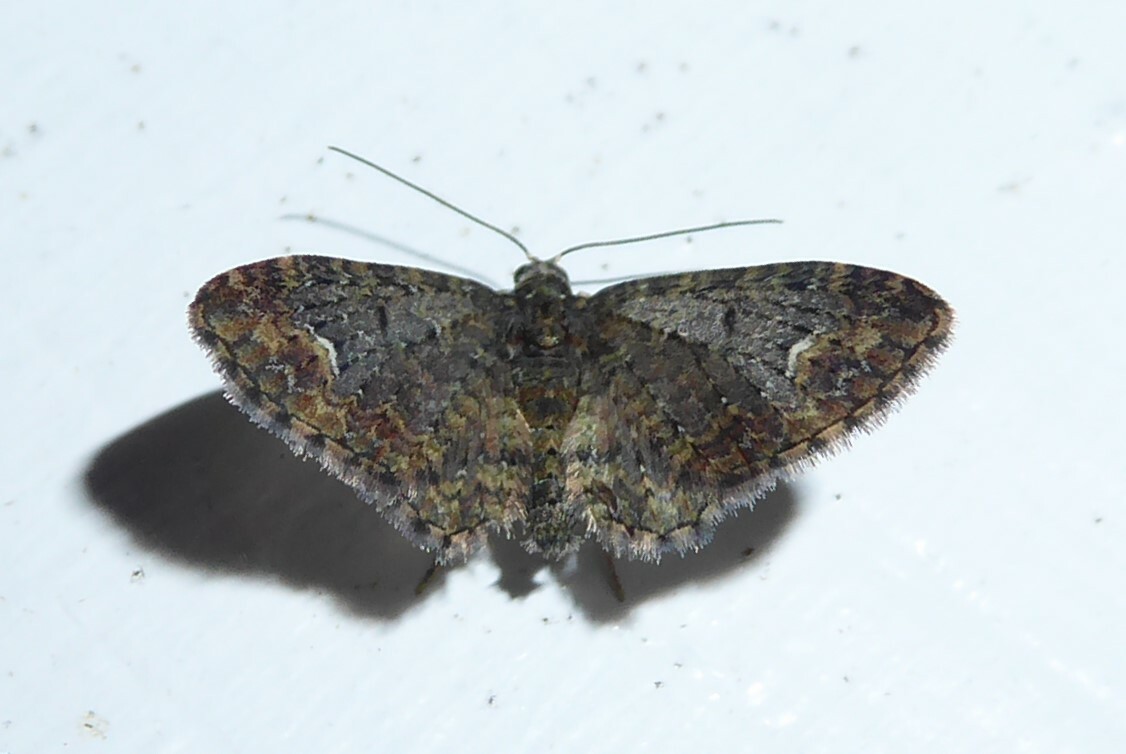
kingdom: Animalia
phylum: Arthropoda
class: Insecta
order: Lepidoptera
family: Geometridae
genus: Pasiphilodes
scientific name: Pasiphilodes testulata
